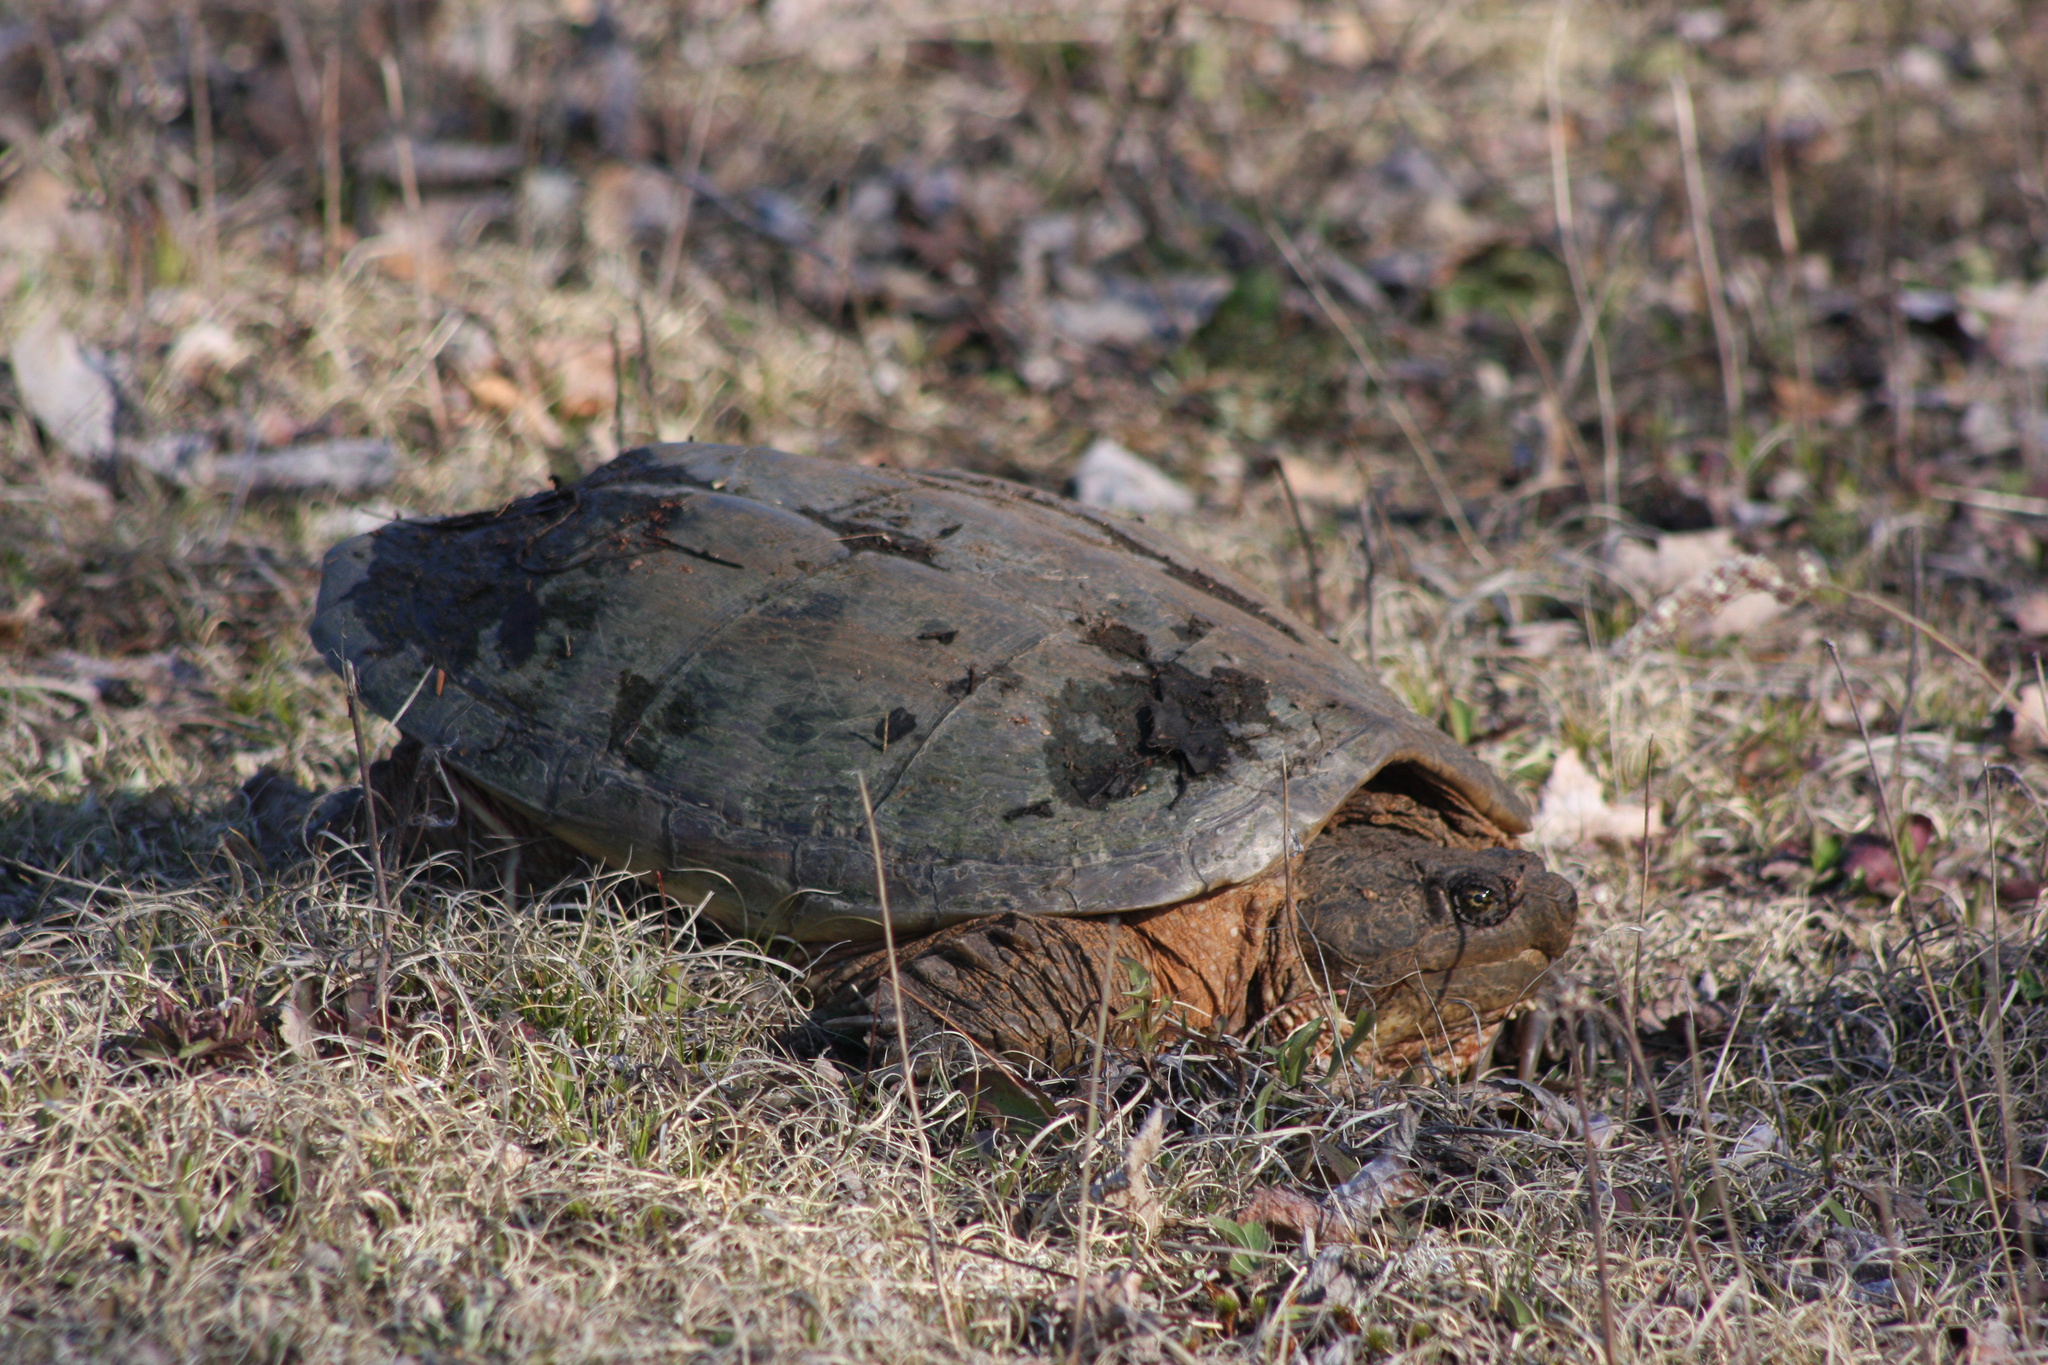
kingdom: Animalia
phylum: Chordata
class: Testudines
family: Chelydridae
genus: Chelydra
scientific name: Chelydra serpentina
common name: Common snapping turtle
